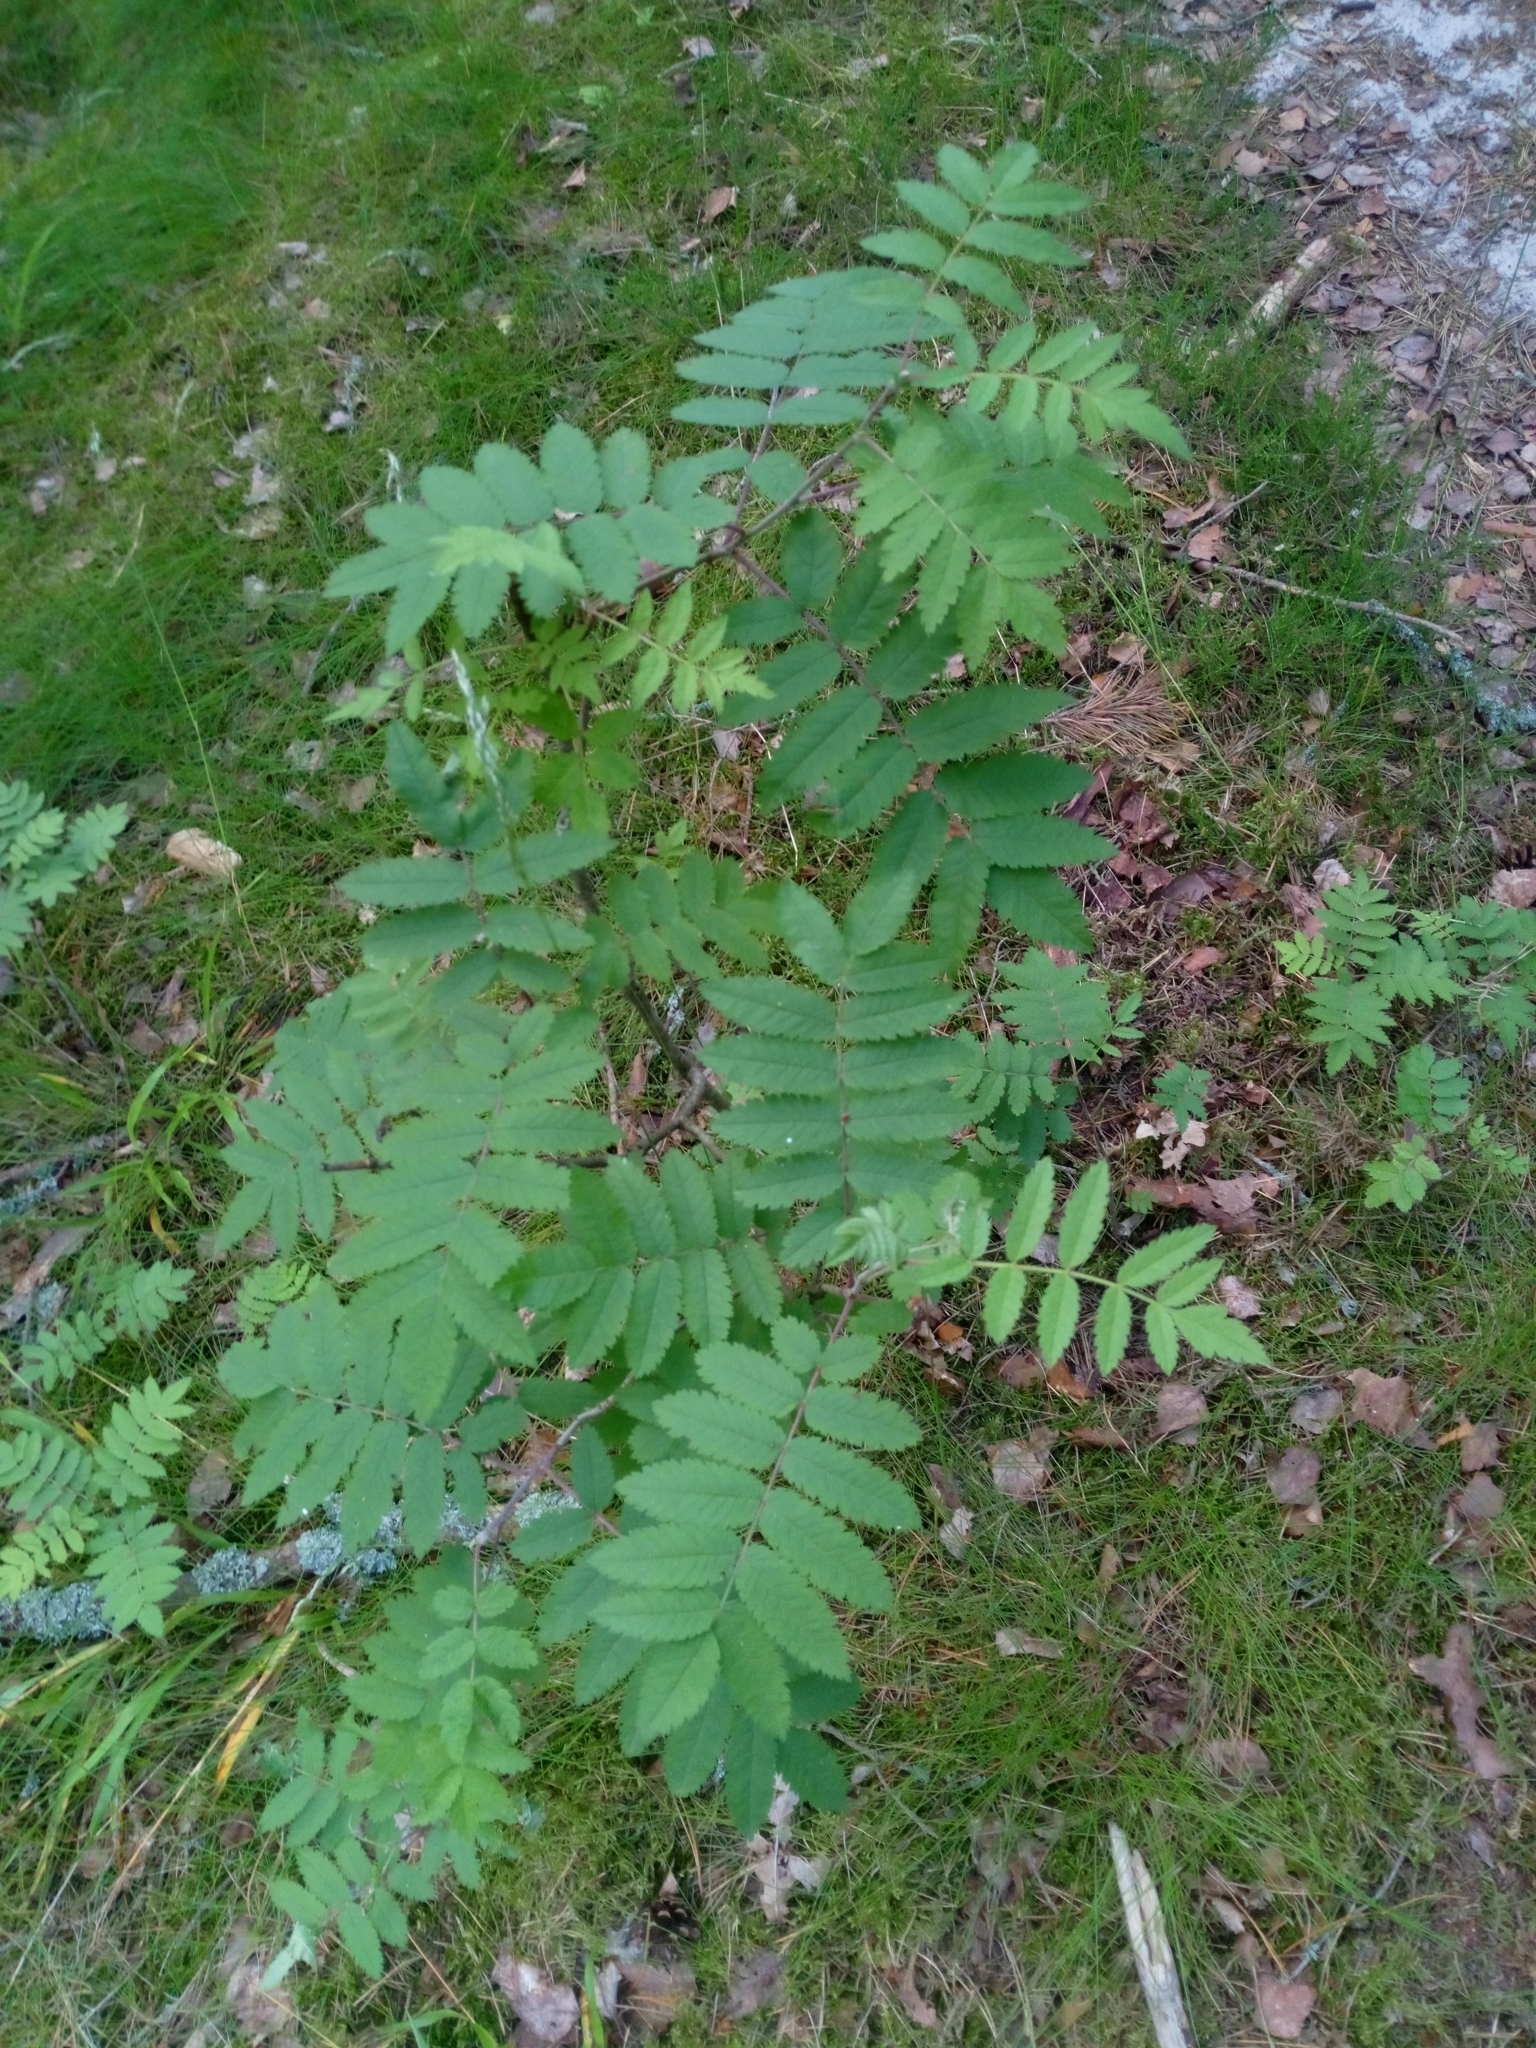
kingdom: Plantae
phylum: Tracheophyta
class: Magnoliopsida
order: Rosales
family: Rosaceae
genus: Sorbus
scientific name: Sorbus aucuparia
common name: Rowan
